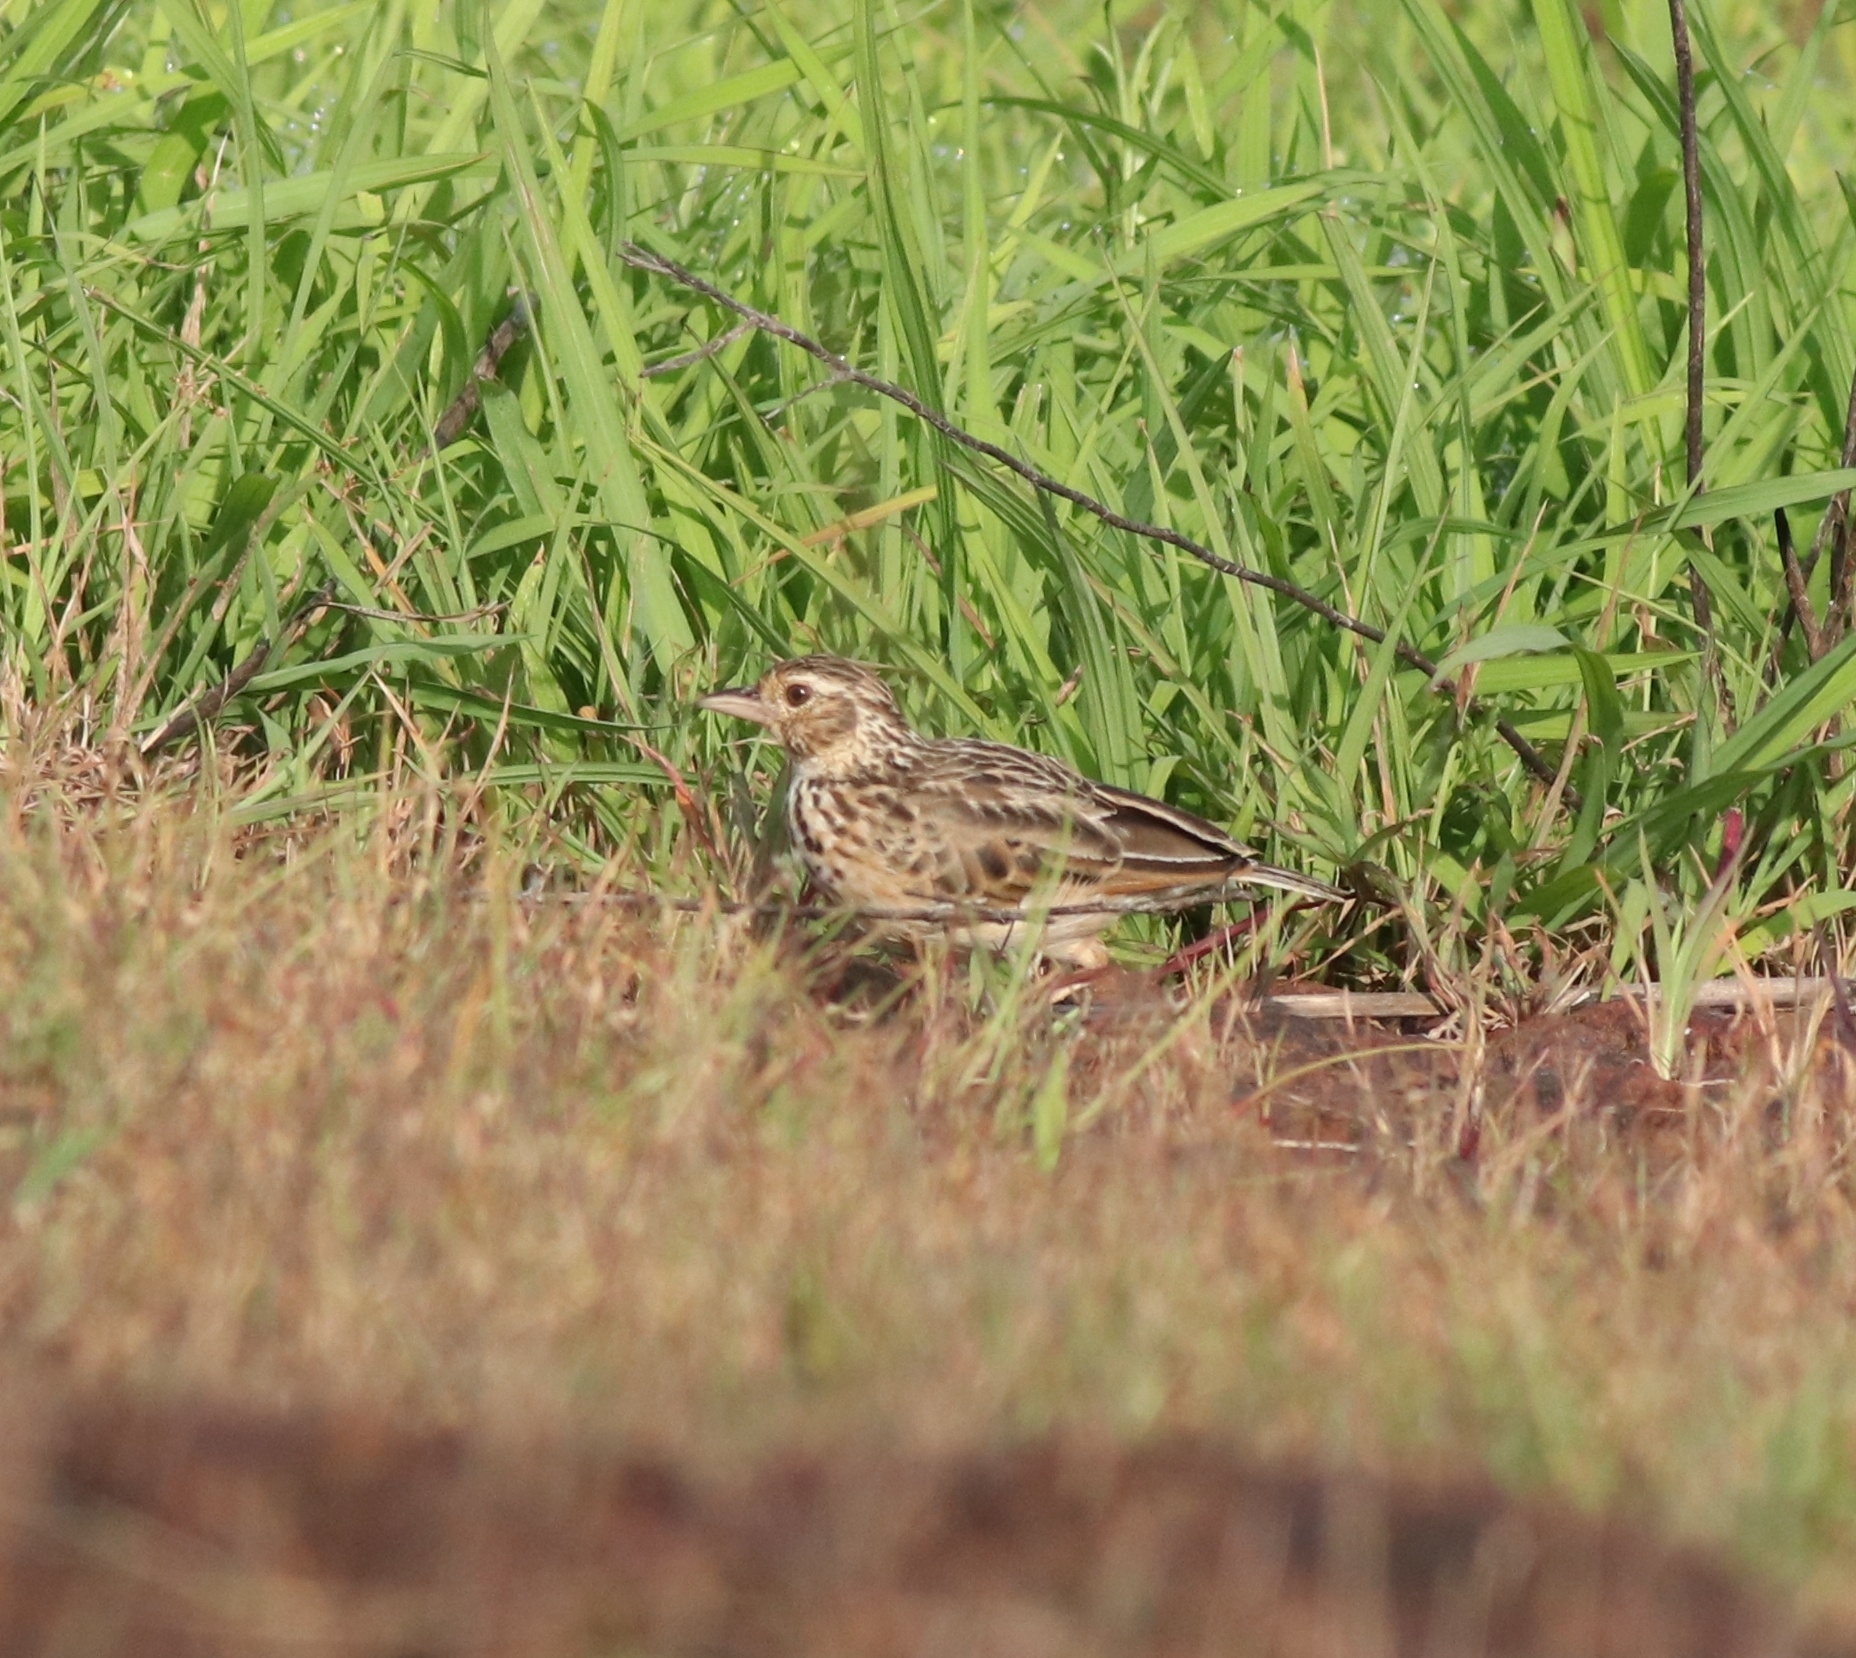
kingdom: Animalia
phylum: Chordata
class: Aves
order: Passeriformes
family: Alaudidae
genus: Mirafra
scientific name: Mirafra affinis
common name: Jerdon's bushlark
